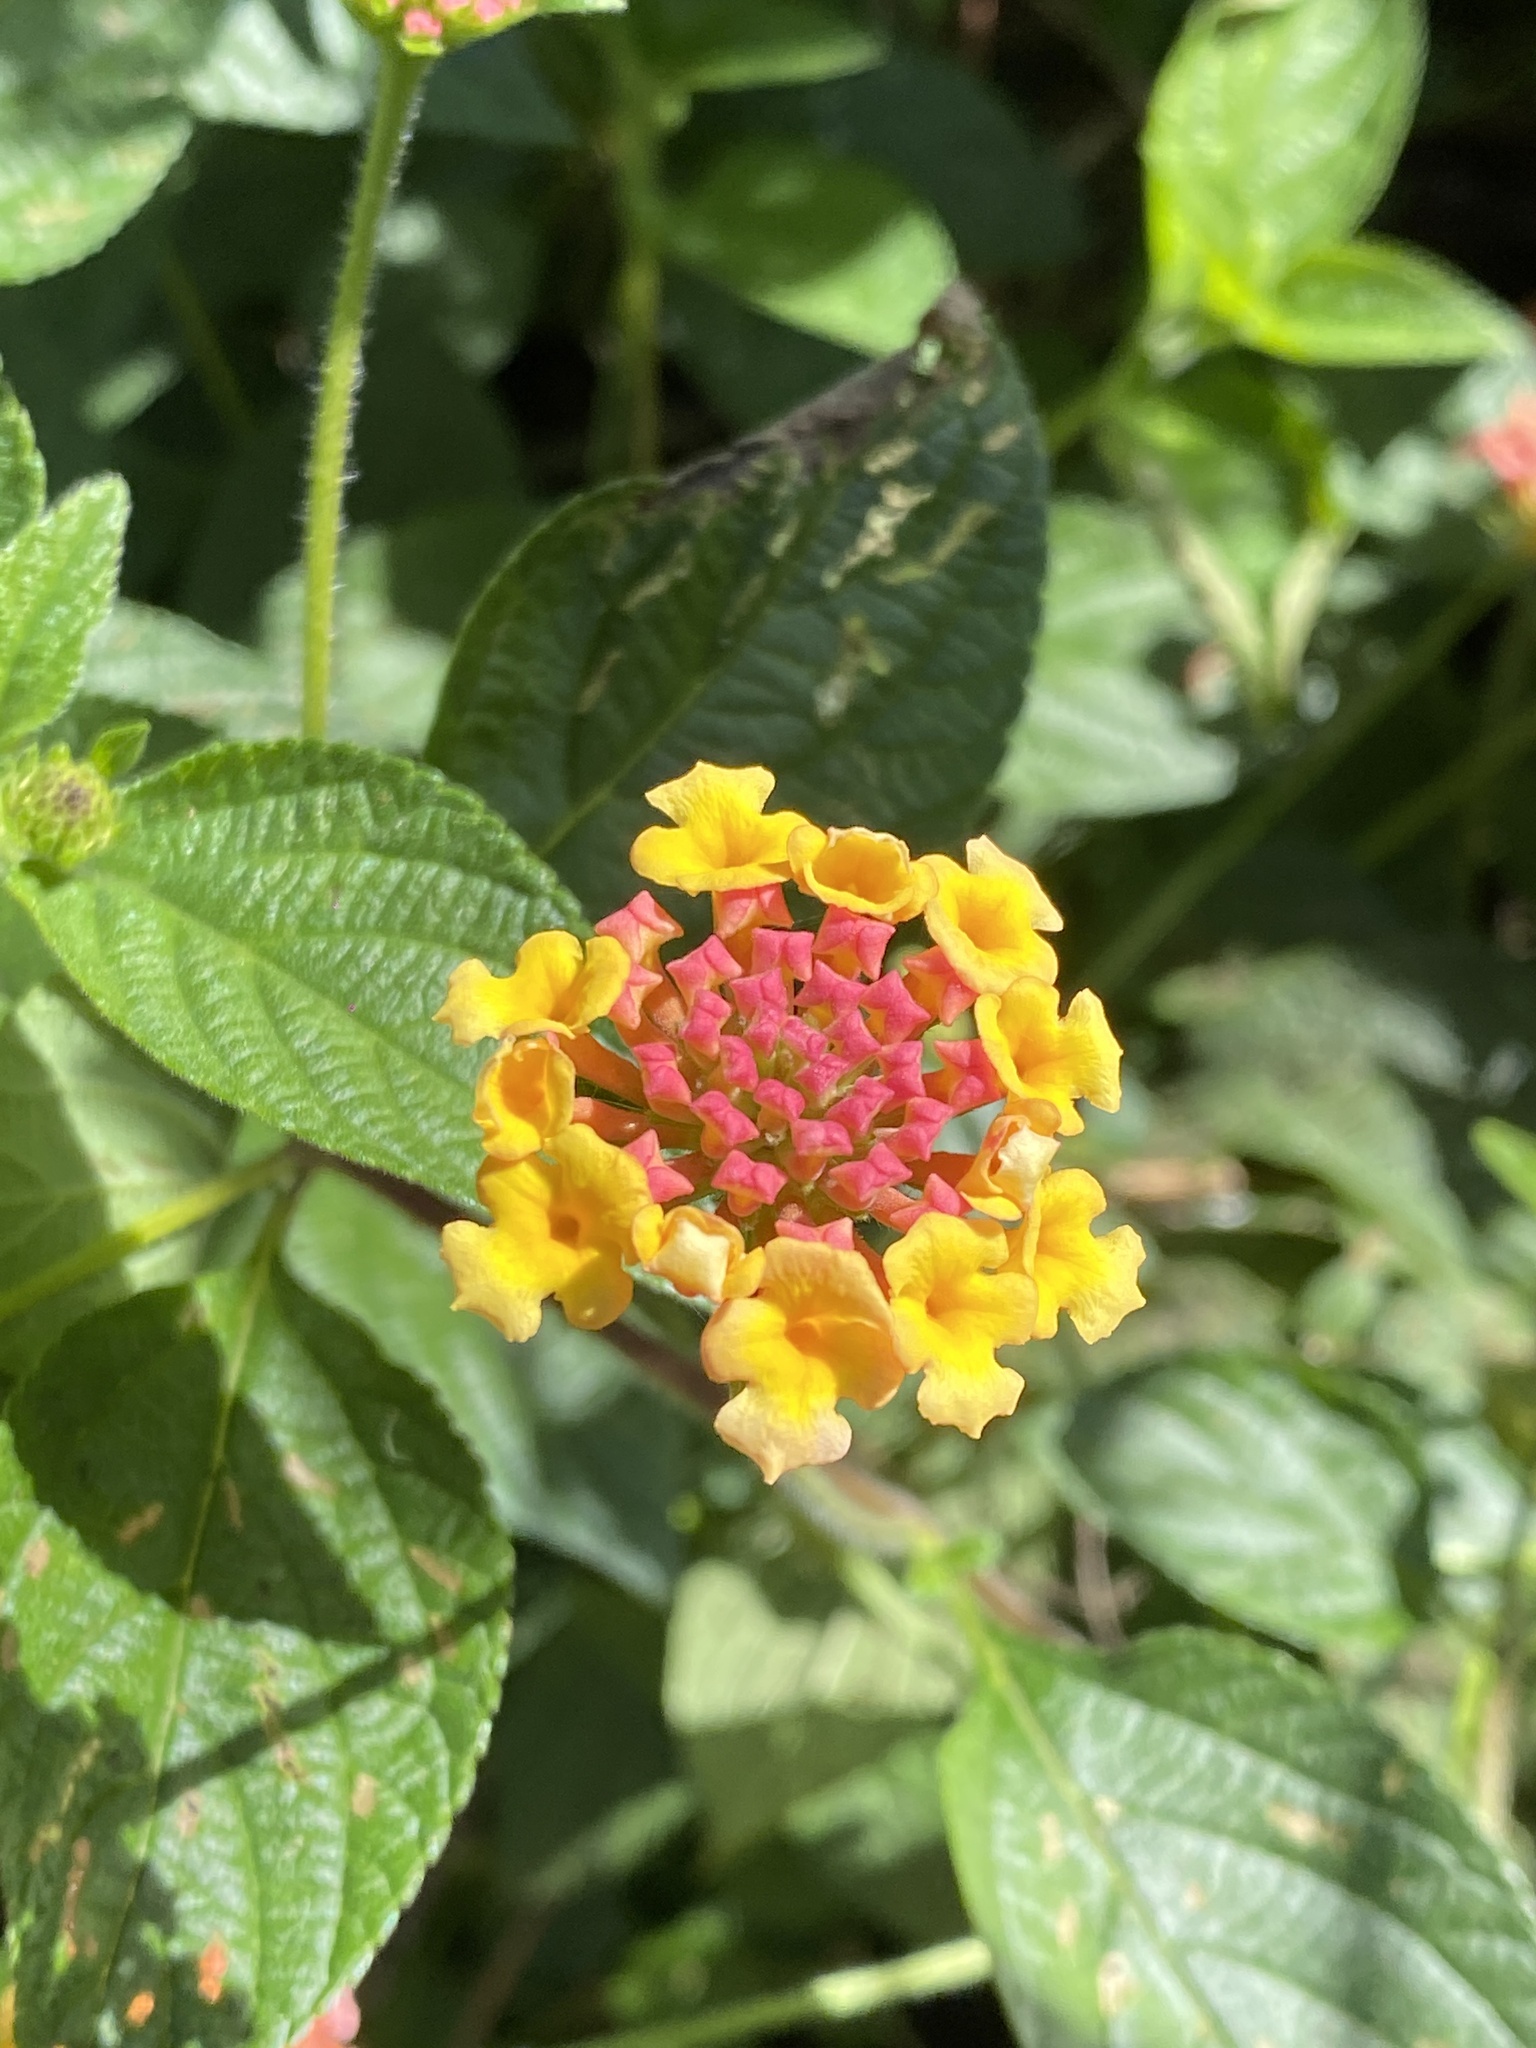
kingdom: Plantae
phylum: Tracheophyta
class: Magnoliopsida
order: Lamiales
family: Verbenaceae
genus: Lantana
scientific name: Lantana camara
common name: Lantana
